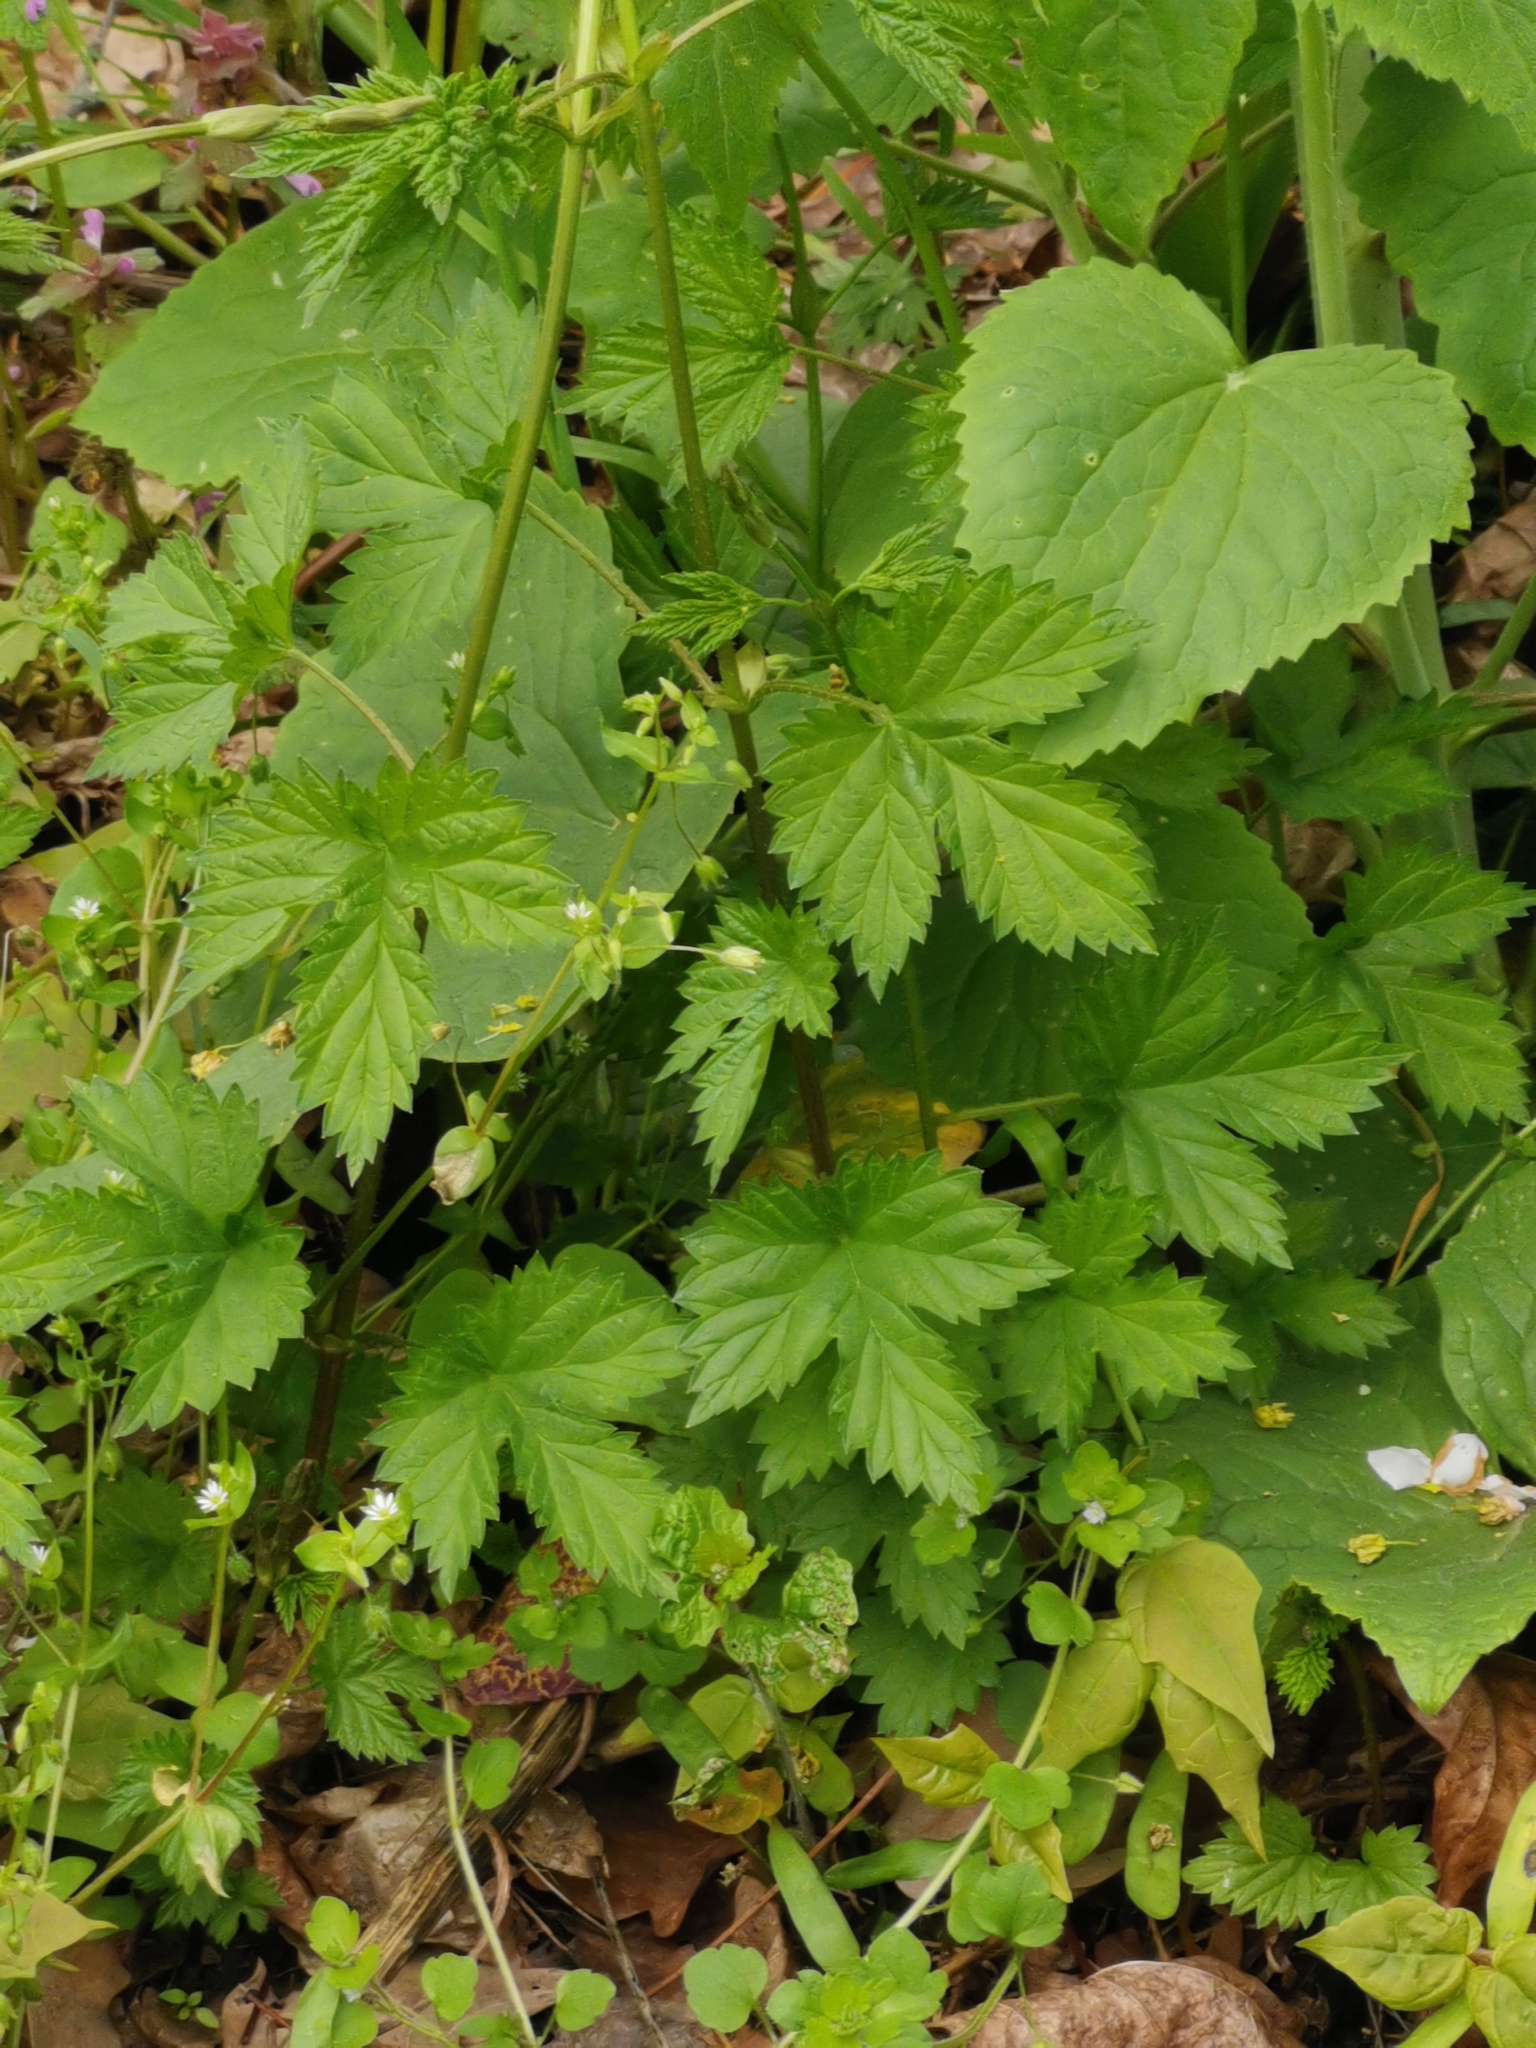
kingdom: Plantae
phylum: Tracheophyta
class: Magnoliopsida
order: Rosales
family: Cannabaceae
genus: Humulus
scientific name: Humulus lupulus
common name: Hop
